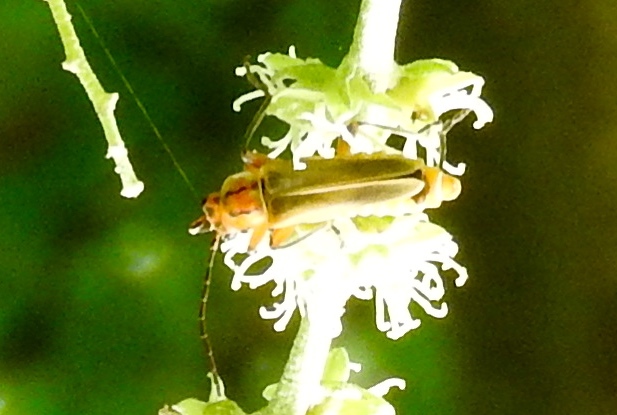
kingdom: Animalia
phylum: Arthropoda
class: Insecta
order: Coleoptera
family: Cantharidae
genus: Chauliognathus
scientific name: Chauliognathus
